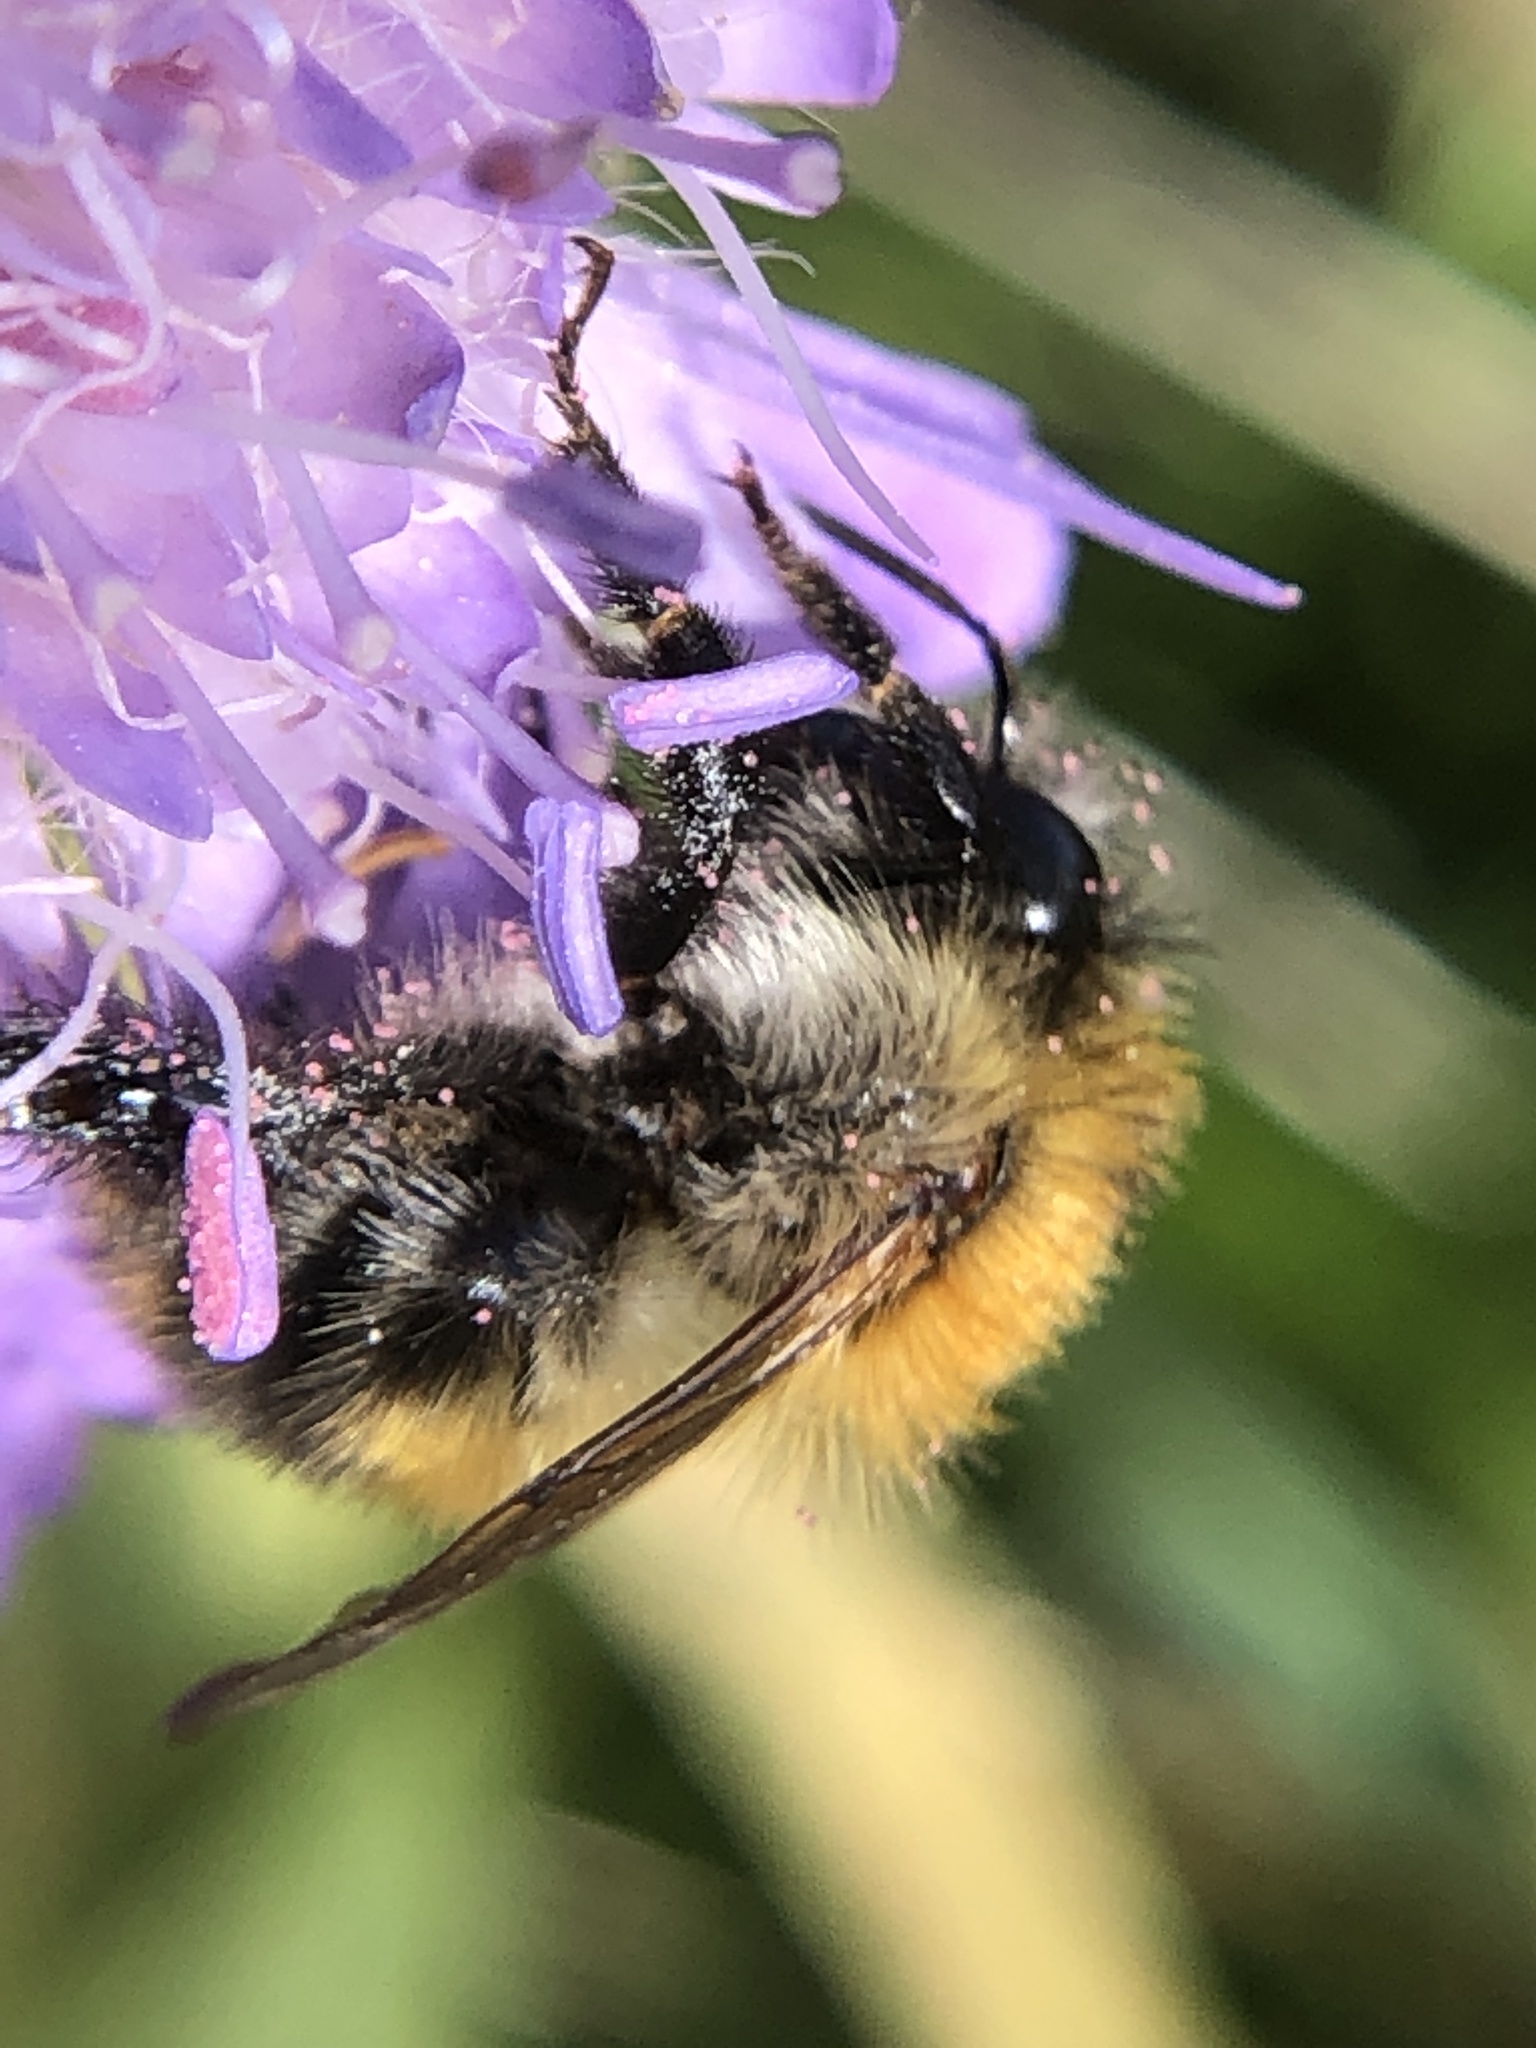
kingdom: Animalia
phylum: Arthropoda
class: Insecta
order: Hymenoptera
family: Apidae
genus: Bombus
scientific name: Bombus pascuorum
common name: Common carder bee
